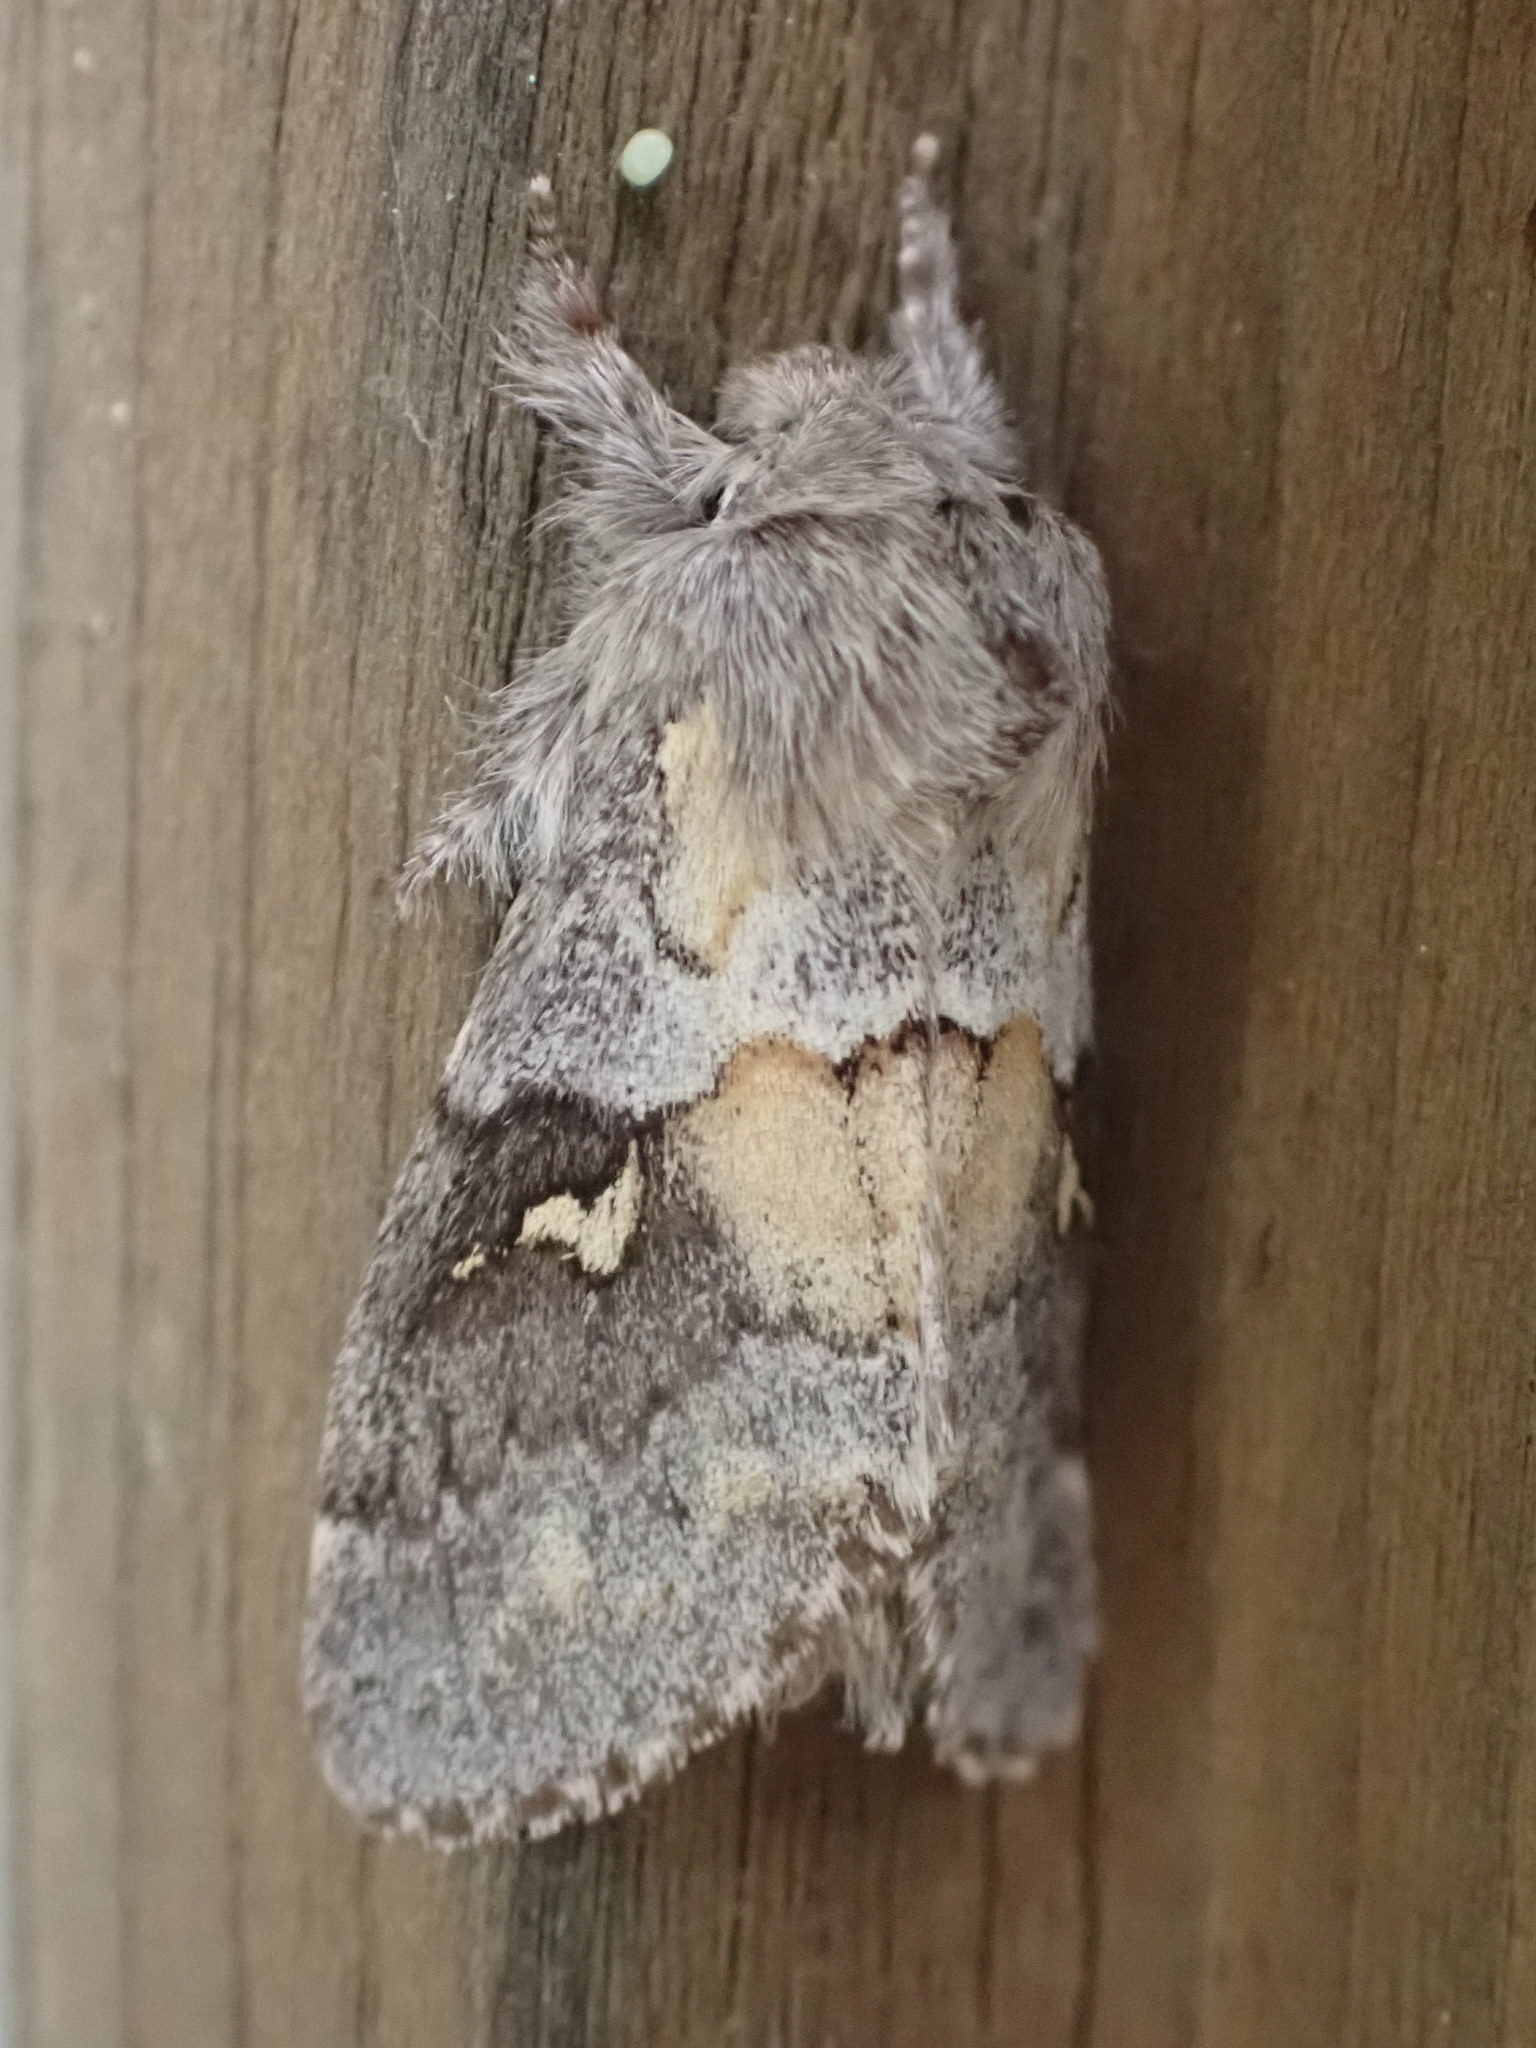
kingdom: Animalia
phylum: Arthropoda
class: Insecta
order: Lepidoptera
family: Notodontidae
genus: Gluphisia
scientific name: Gluphisia avimacula
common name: Four-spotted gluphisia moth
